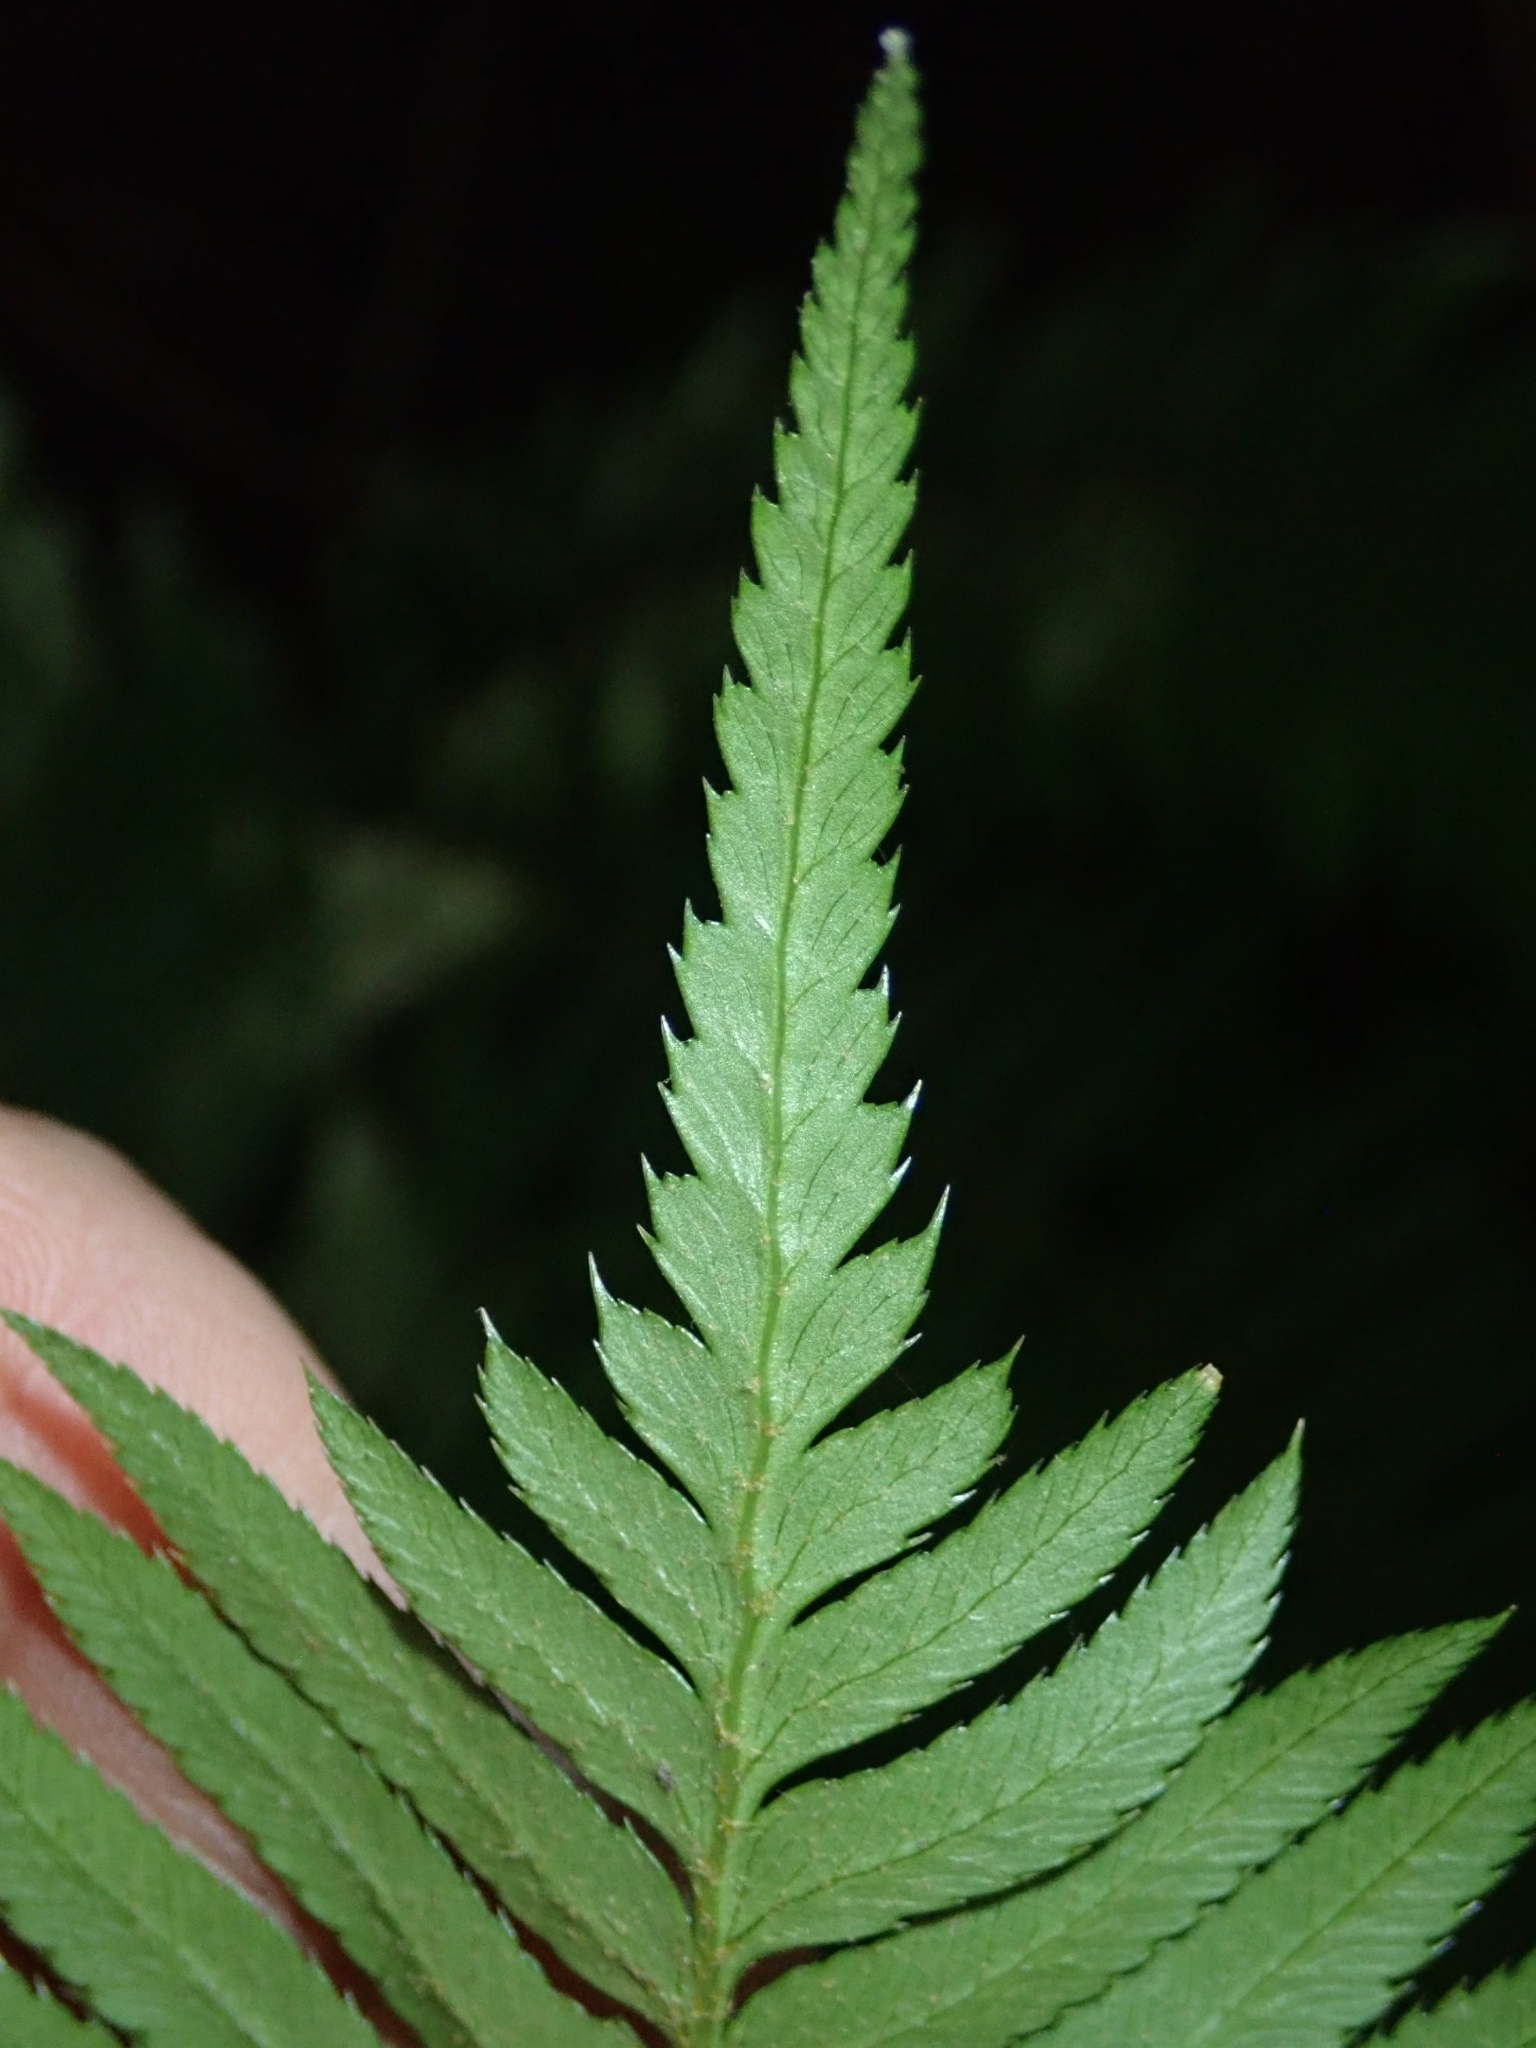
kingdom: Plantae
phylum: Tracheophyta
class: Polypodiopsida
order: Polypodiales
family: Dryopteridaceae
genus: Polystichum
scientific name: Polystichum munitum
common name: Western sword-fern
